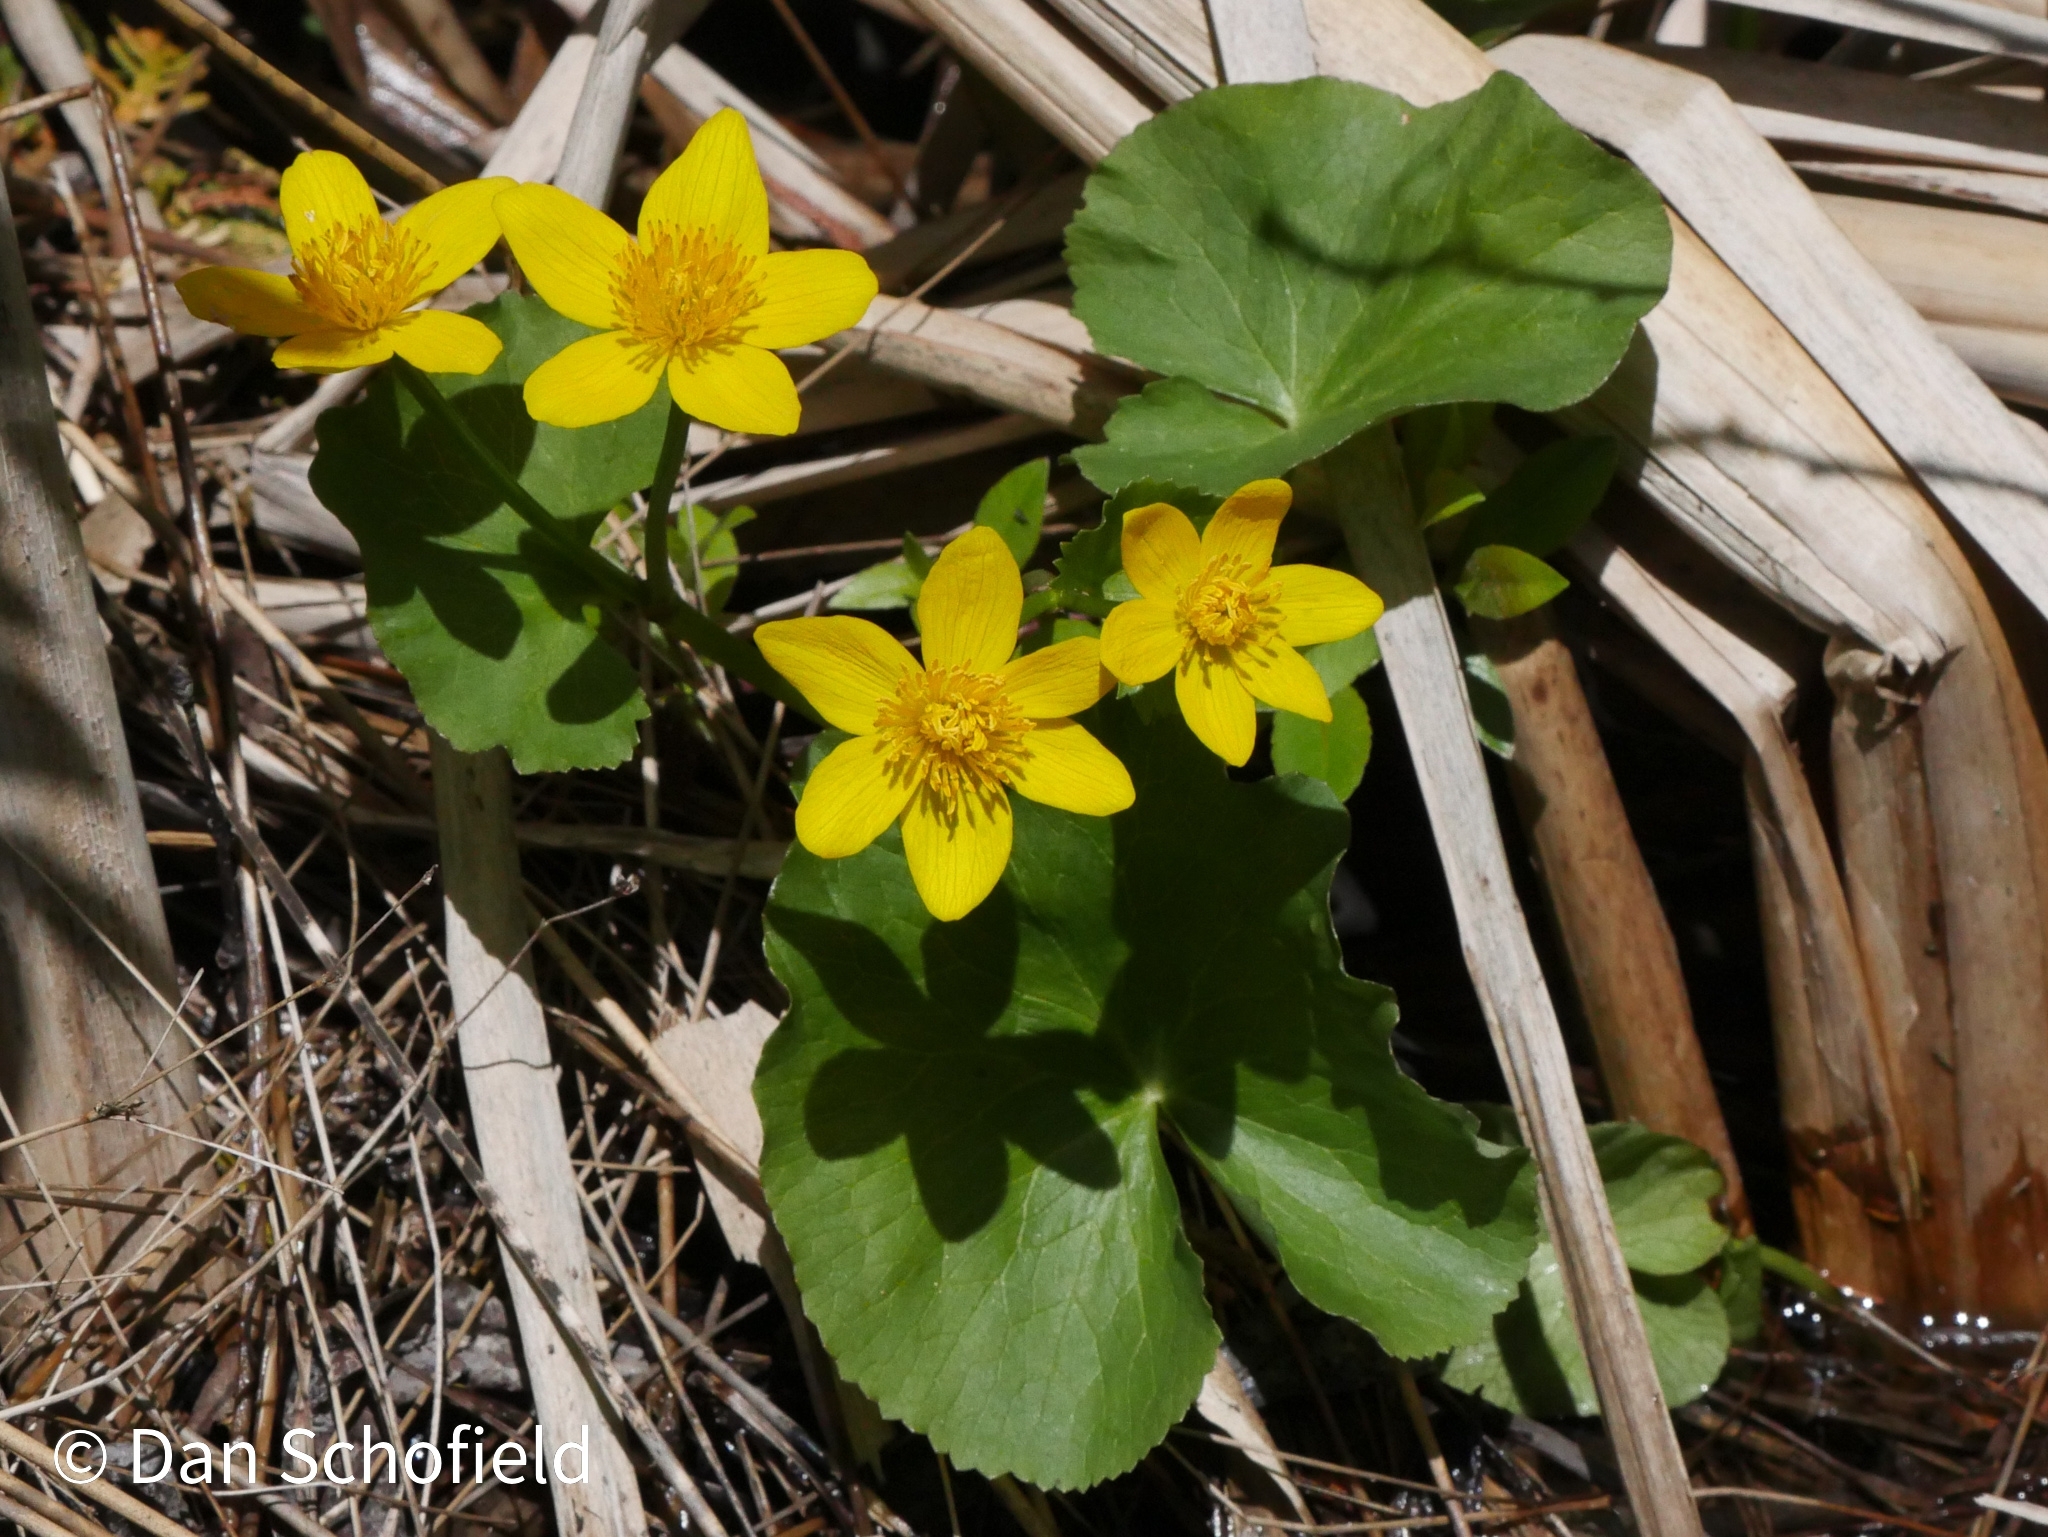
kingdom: Plantae
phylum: Tracheophyta
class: Magnoliopsida
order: Ranunculales
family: Ranunculaceae
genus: Caltha
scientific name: Caltha palustris
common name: Marsh marigold
